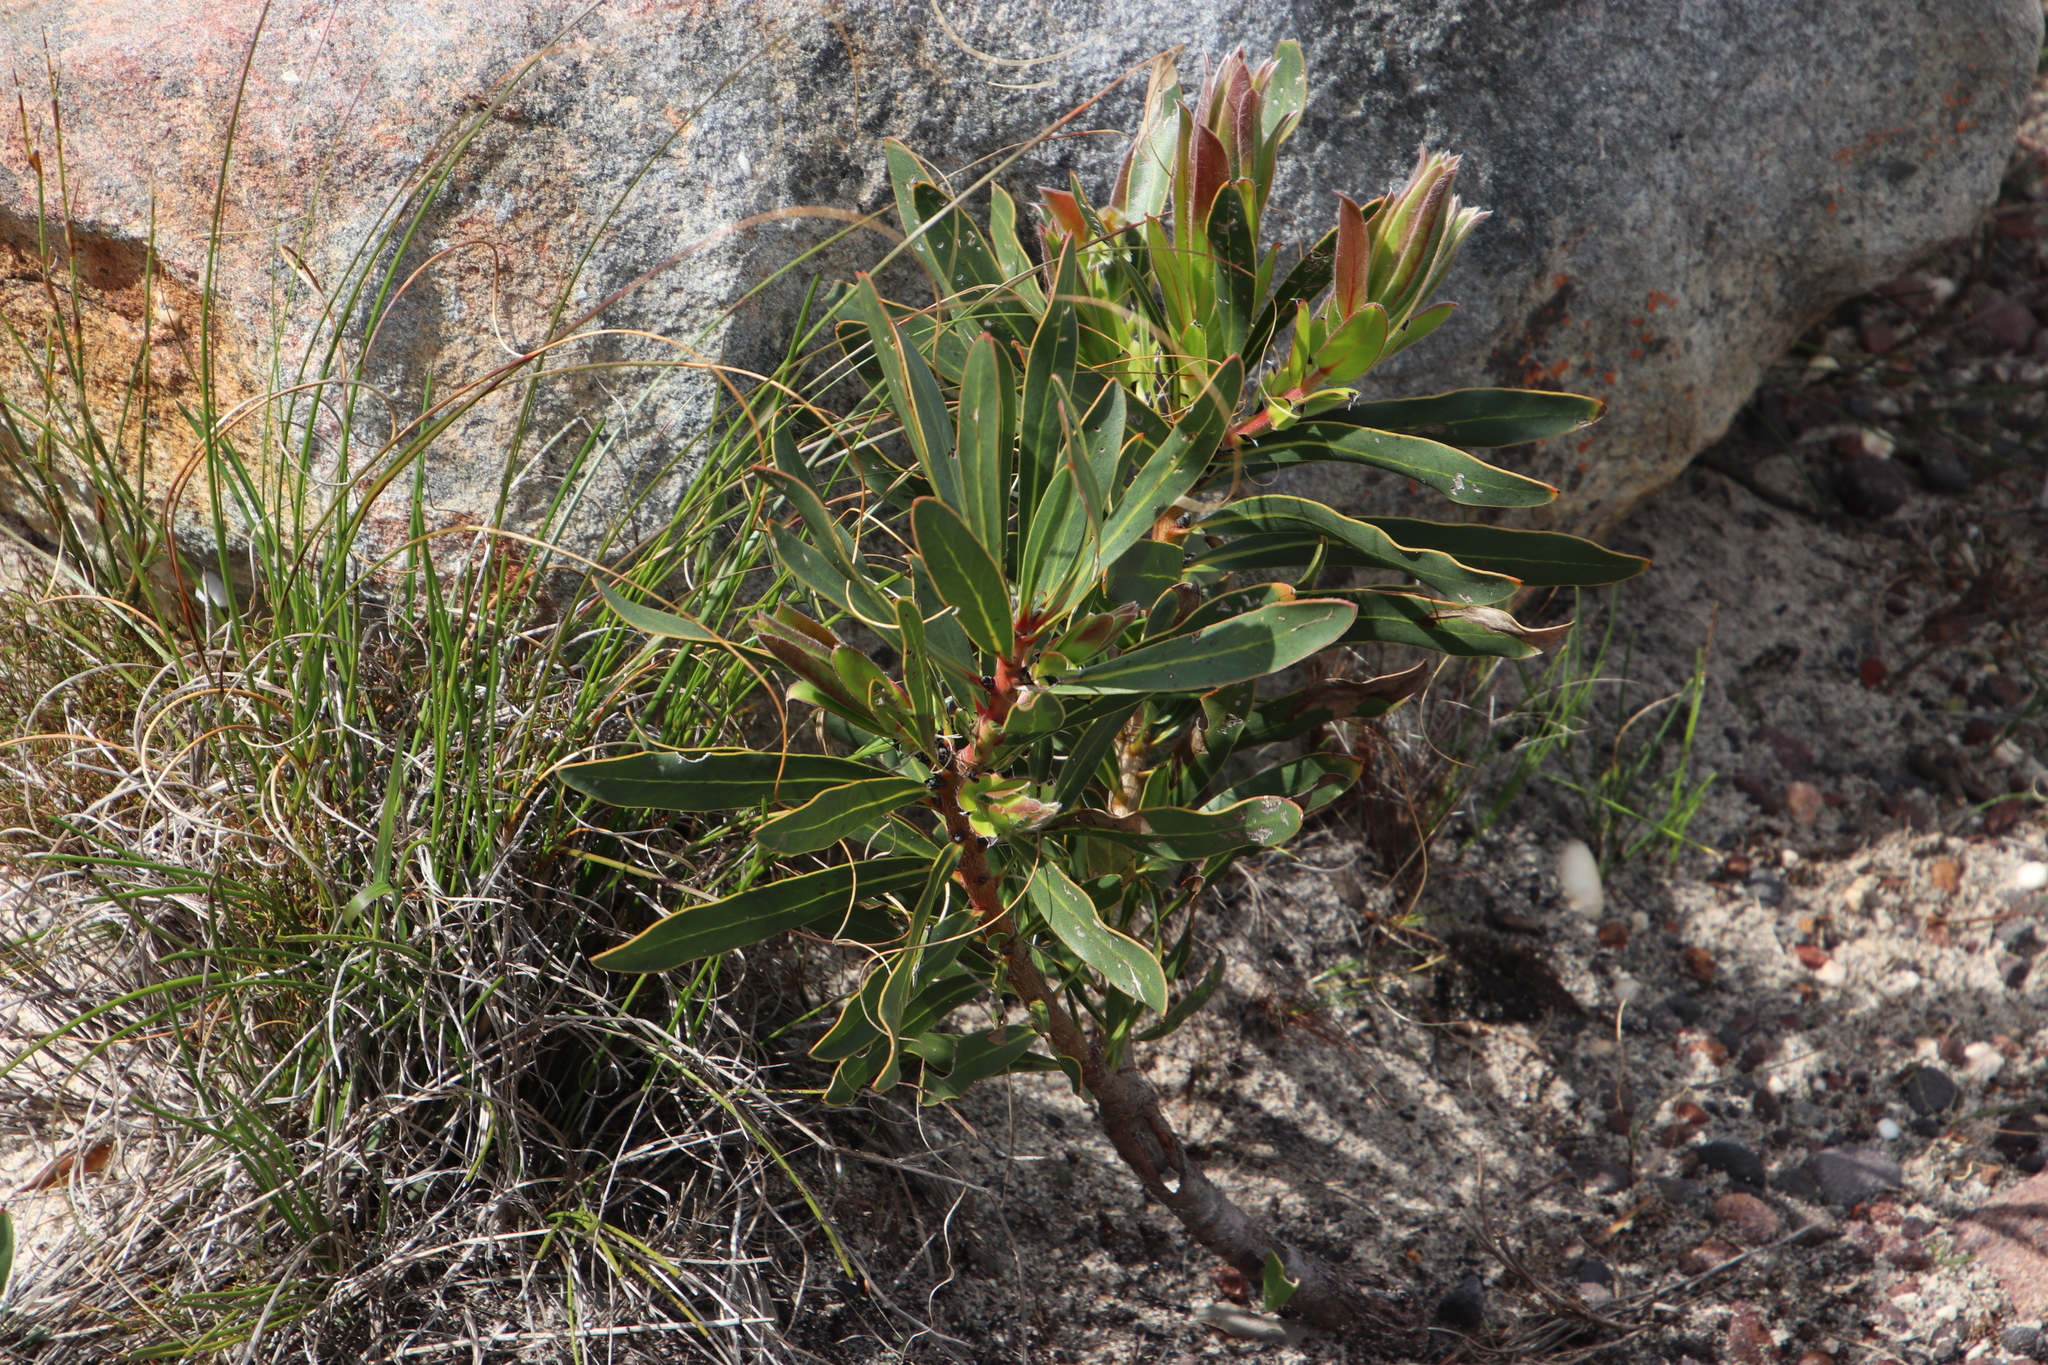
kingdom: Plantae
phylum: Tracheophyta
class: Magnoliopsida
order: Proteales
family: Proteaceae
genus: Protea
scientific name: Protea lepidocarpodendron
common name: Black-bearded protea
